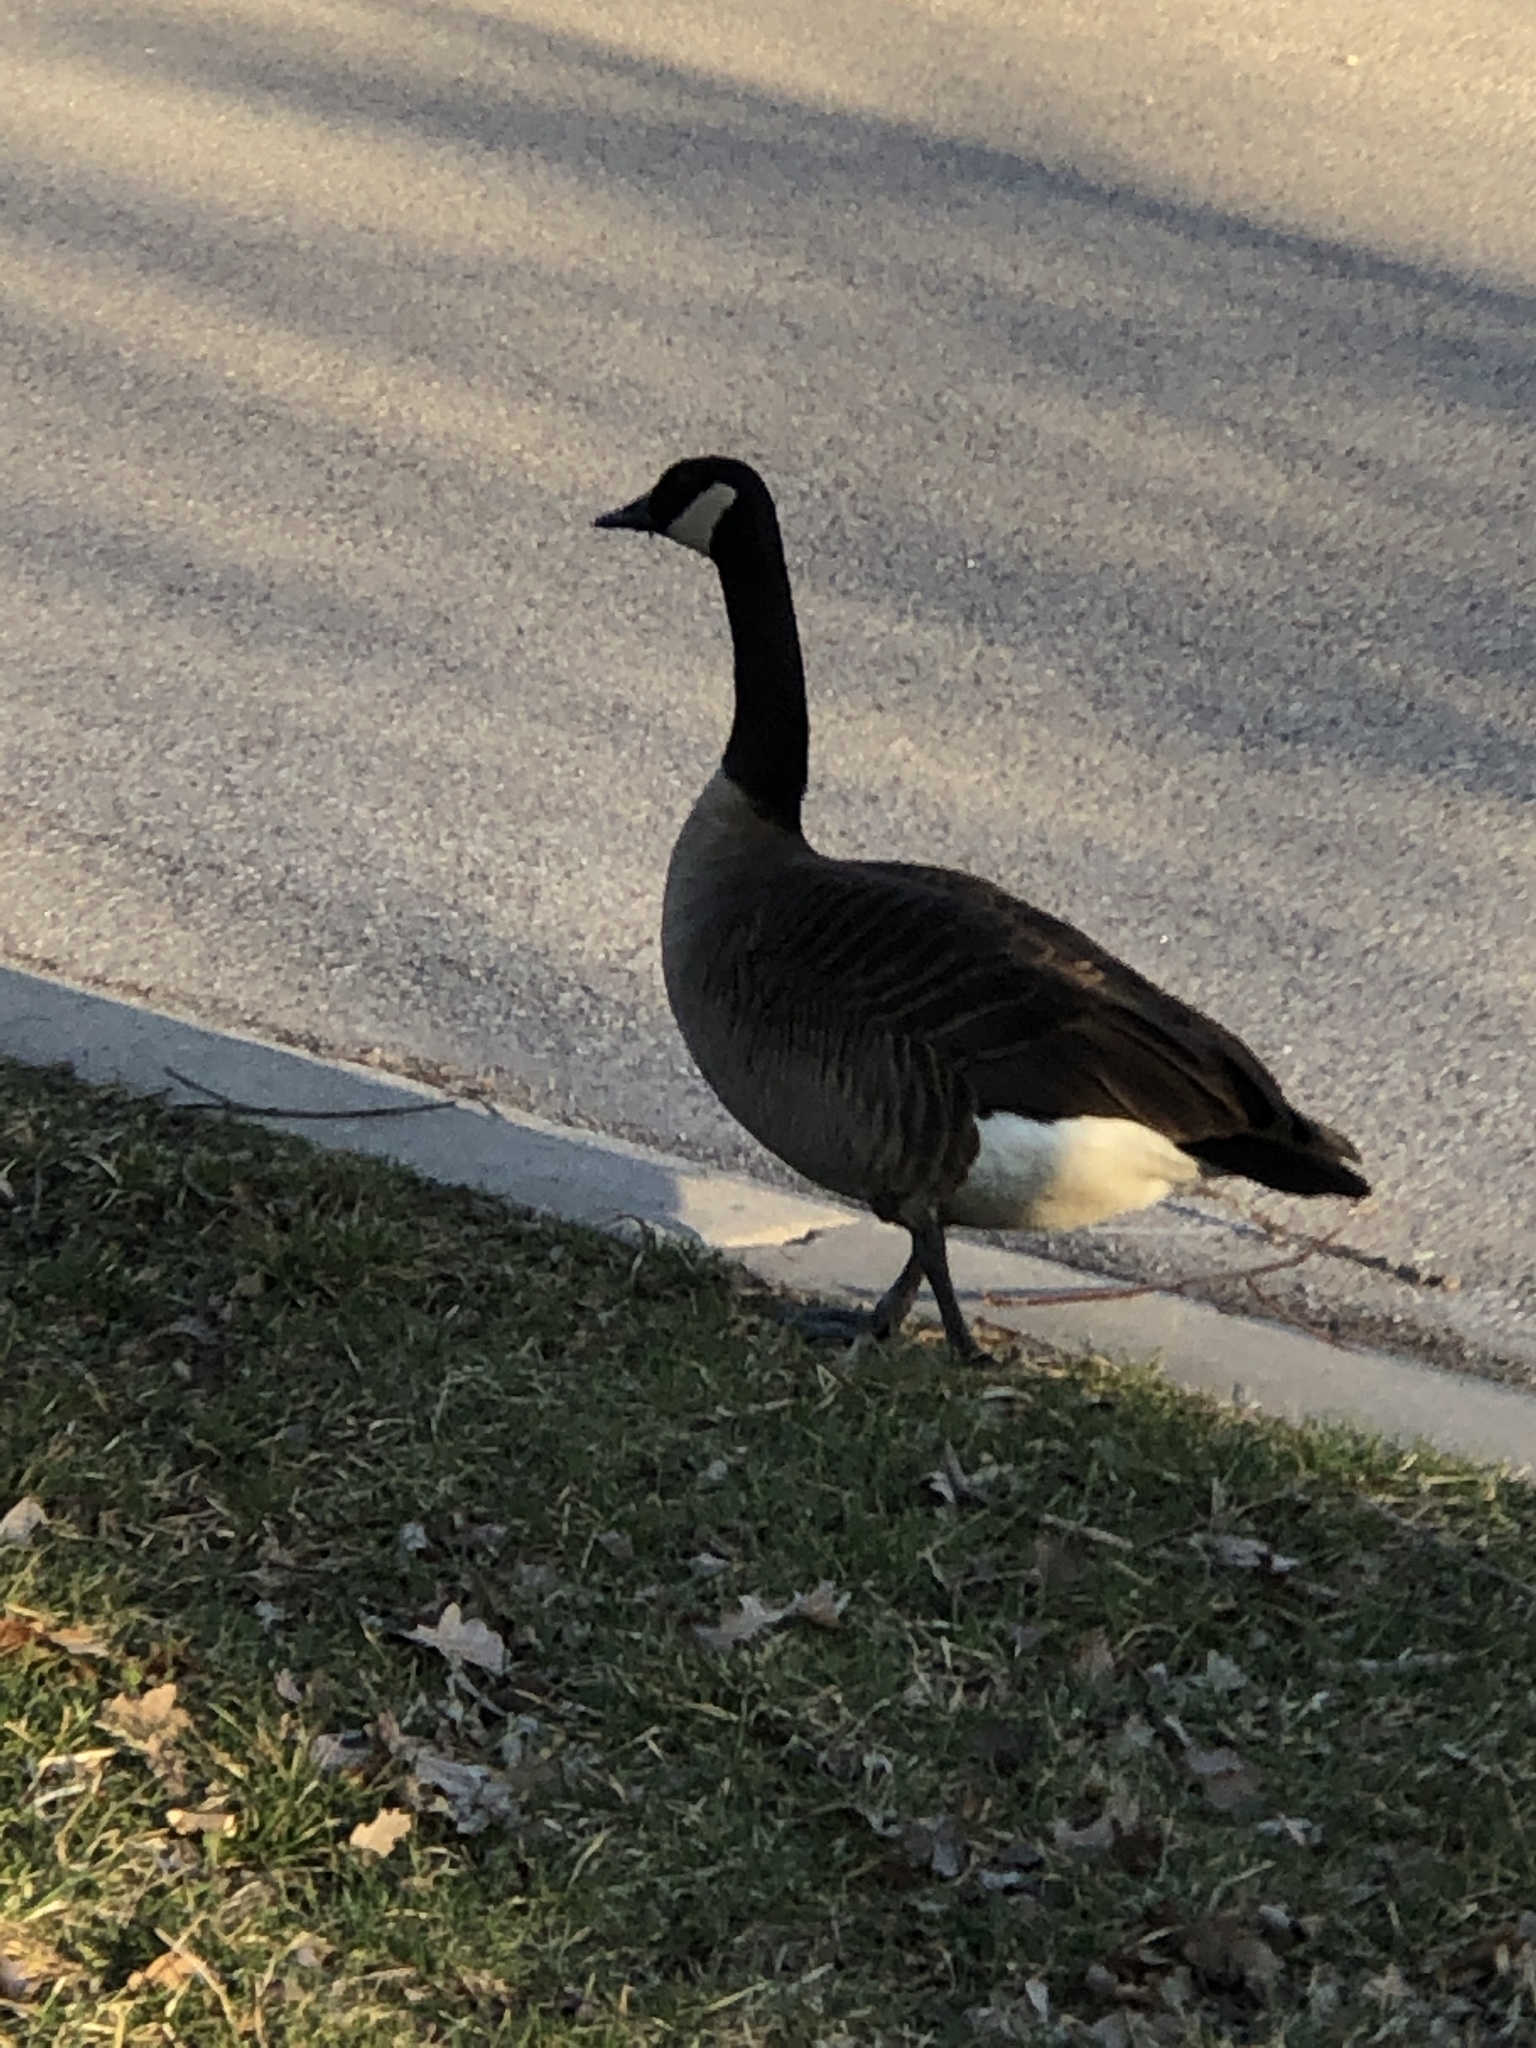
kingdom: Animalia
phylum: Chordata
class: Aves
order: Anseriformes
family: Anatidae
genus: Branta
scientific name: Branta canadensis
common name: Canada goose
